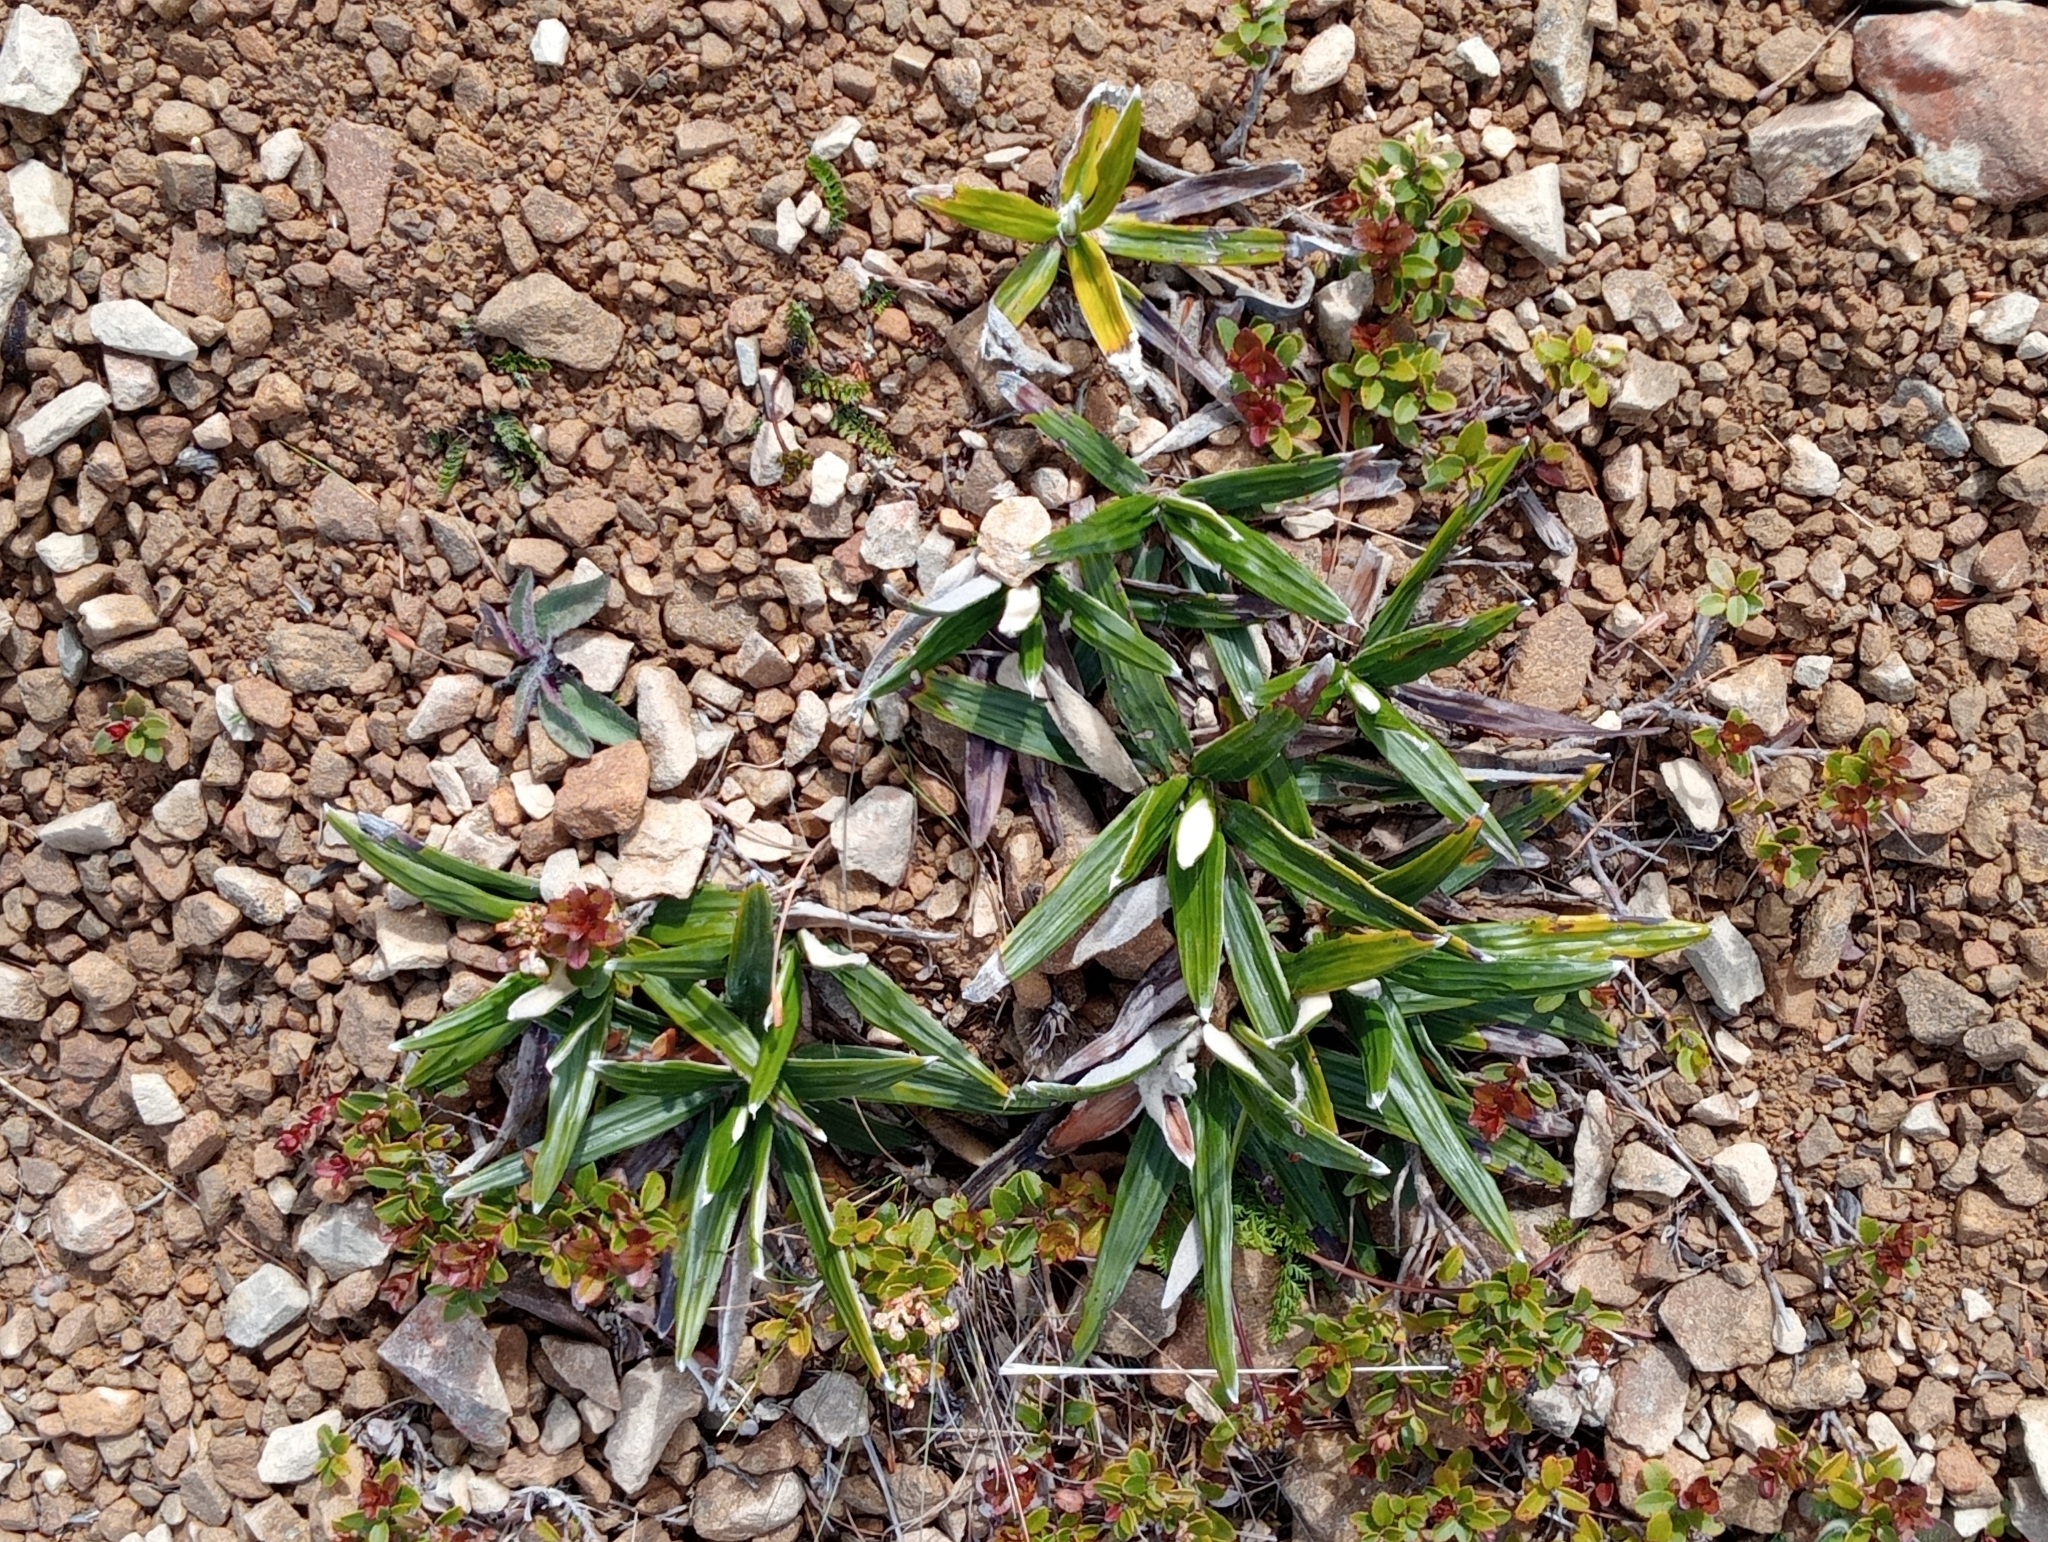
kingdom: Plantae
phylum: Tracheophyta
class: Magnoliopsida
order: Asterales
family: Asteraceae
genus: Celmisia
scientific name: Celmisia spectabilis
